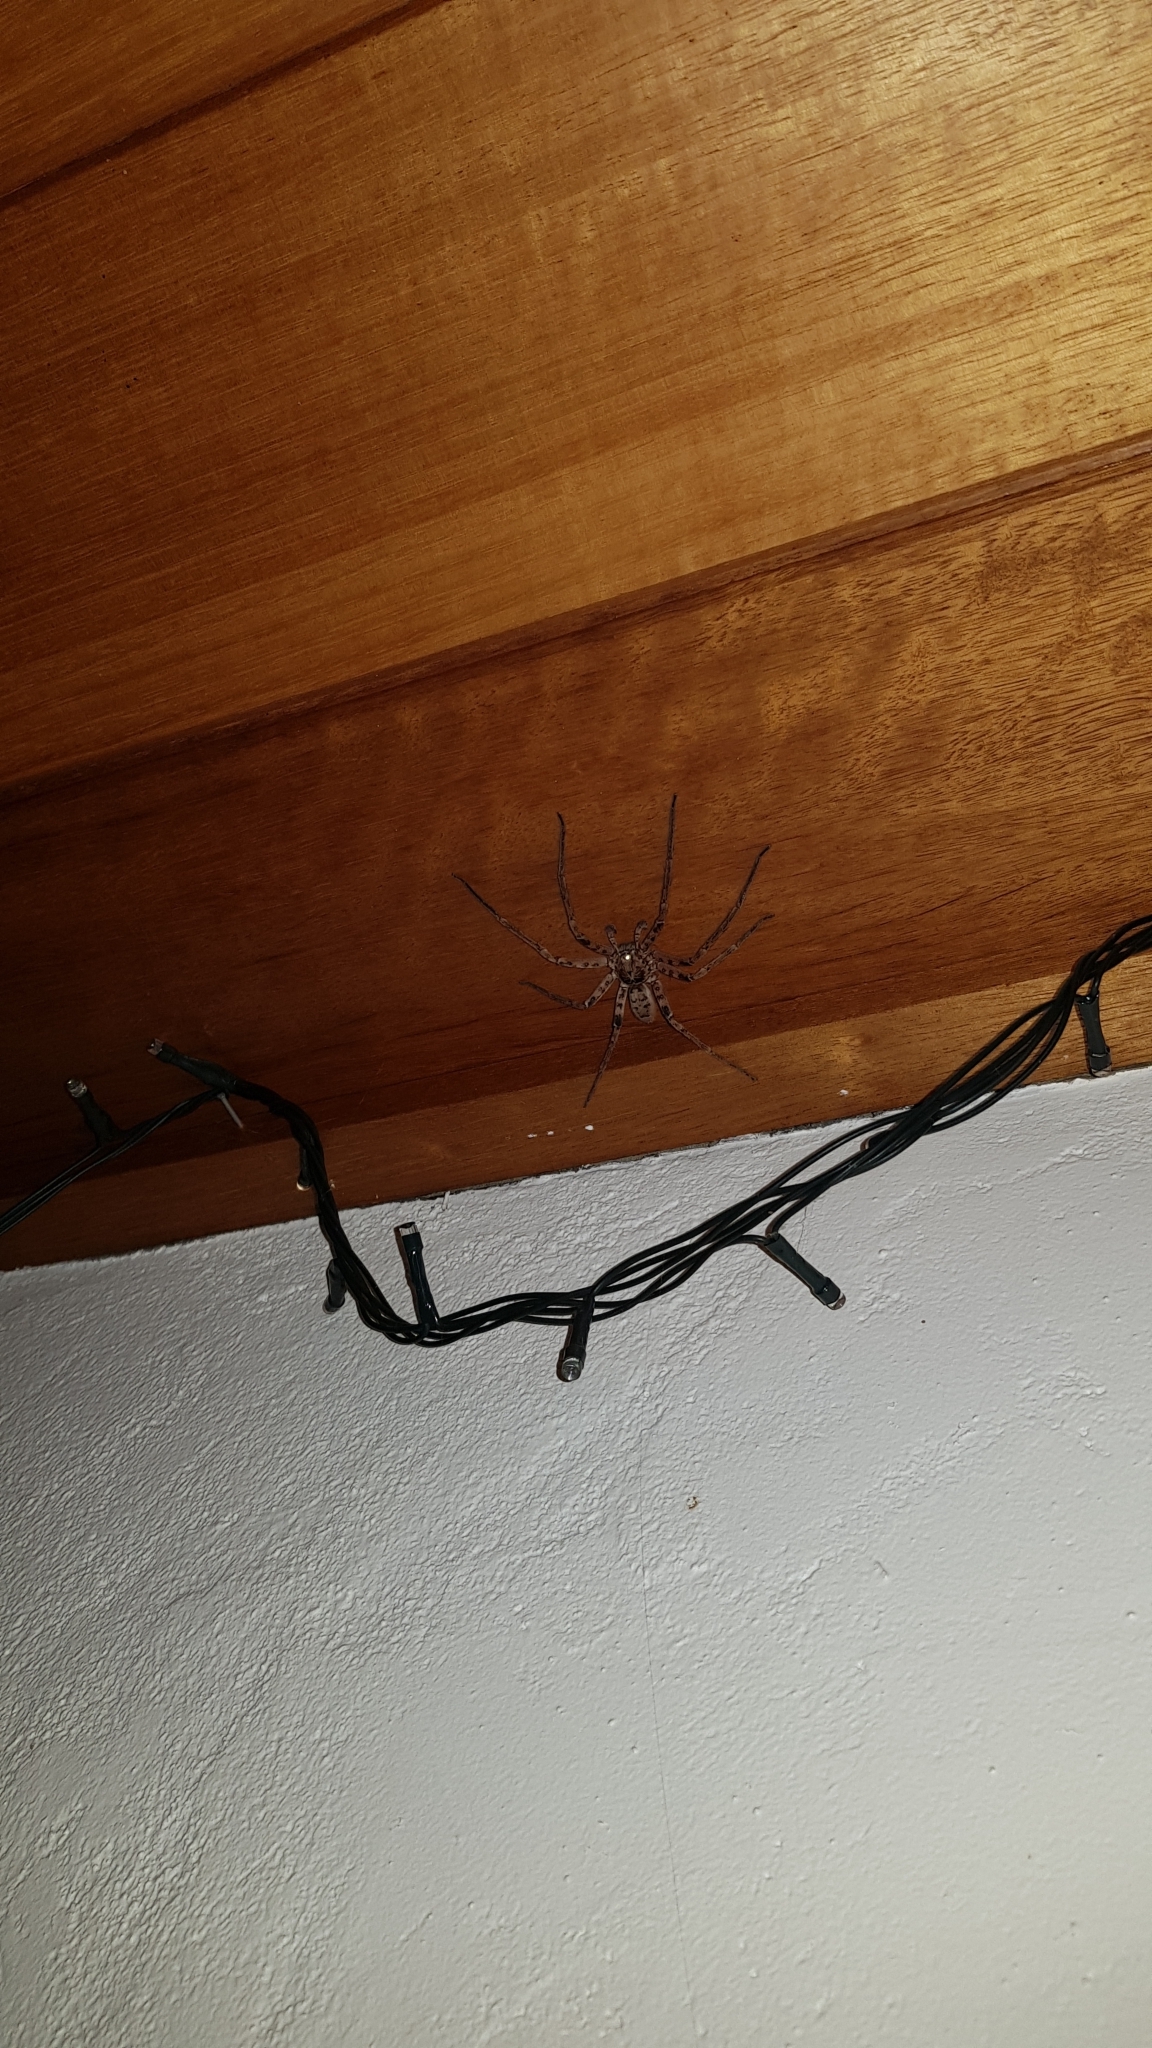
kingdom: Animalia
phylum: Arthropoda
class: Arachnida
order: Araneae
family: Sparassidae
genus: Heteropoda
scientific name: Heteropoda jugulans
